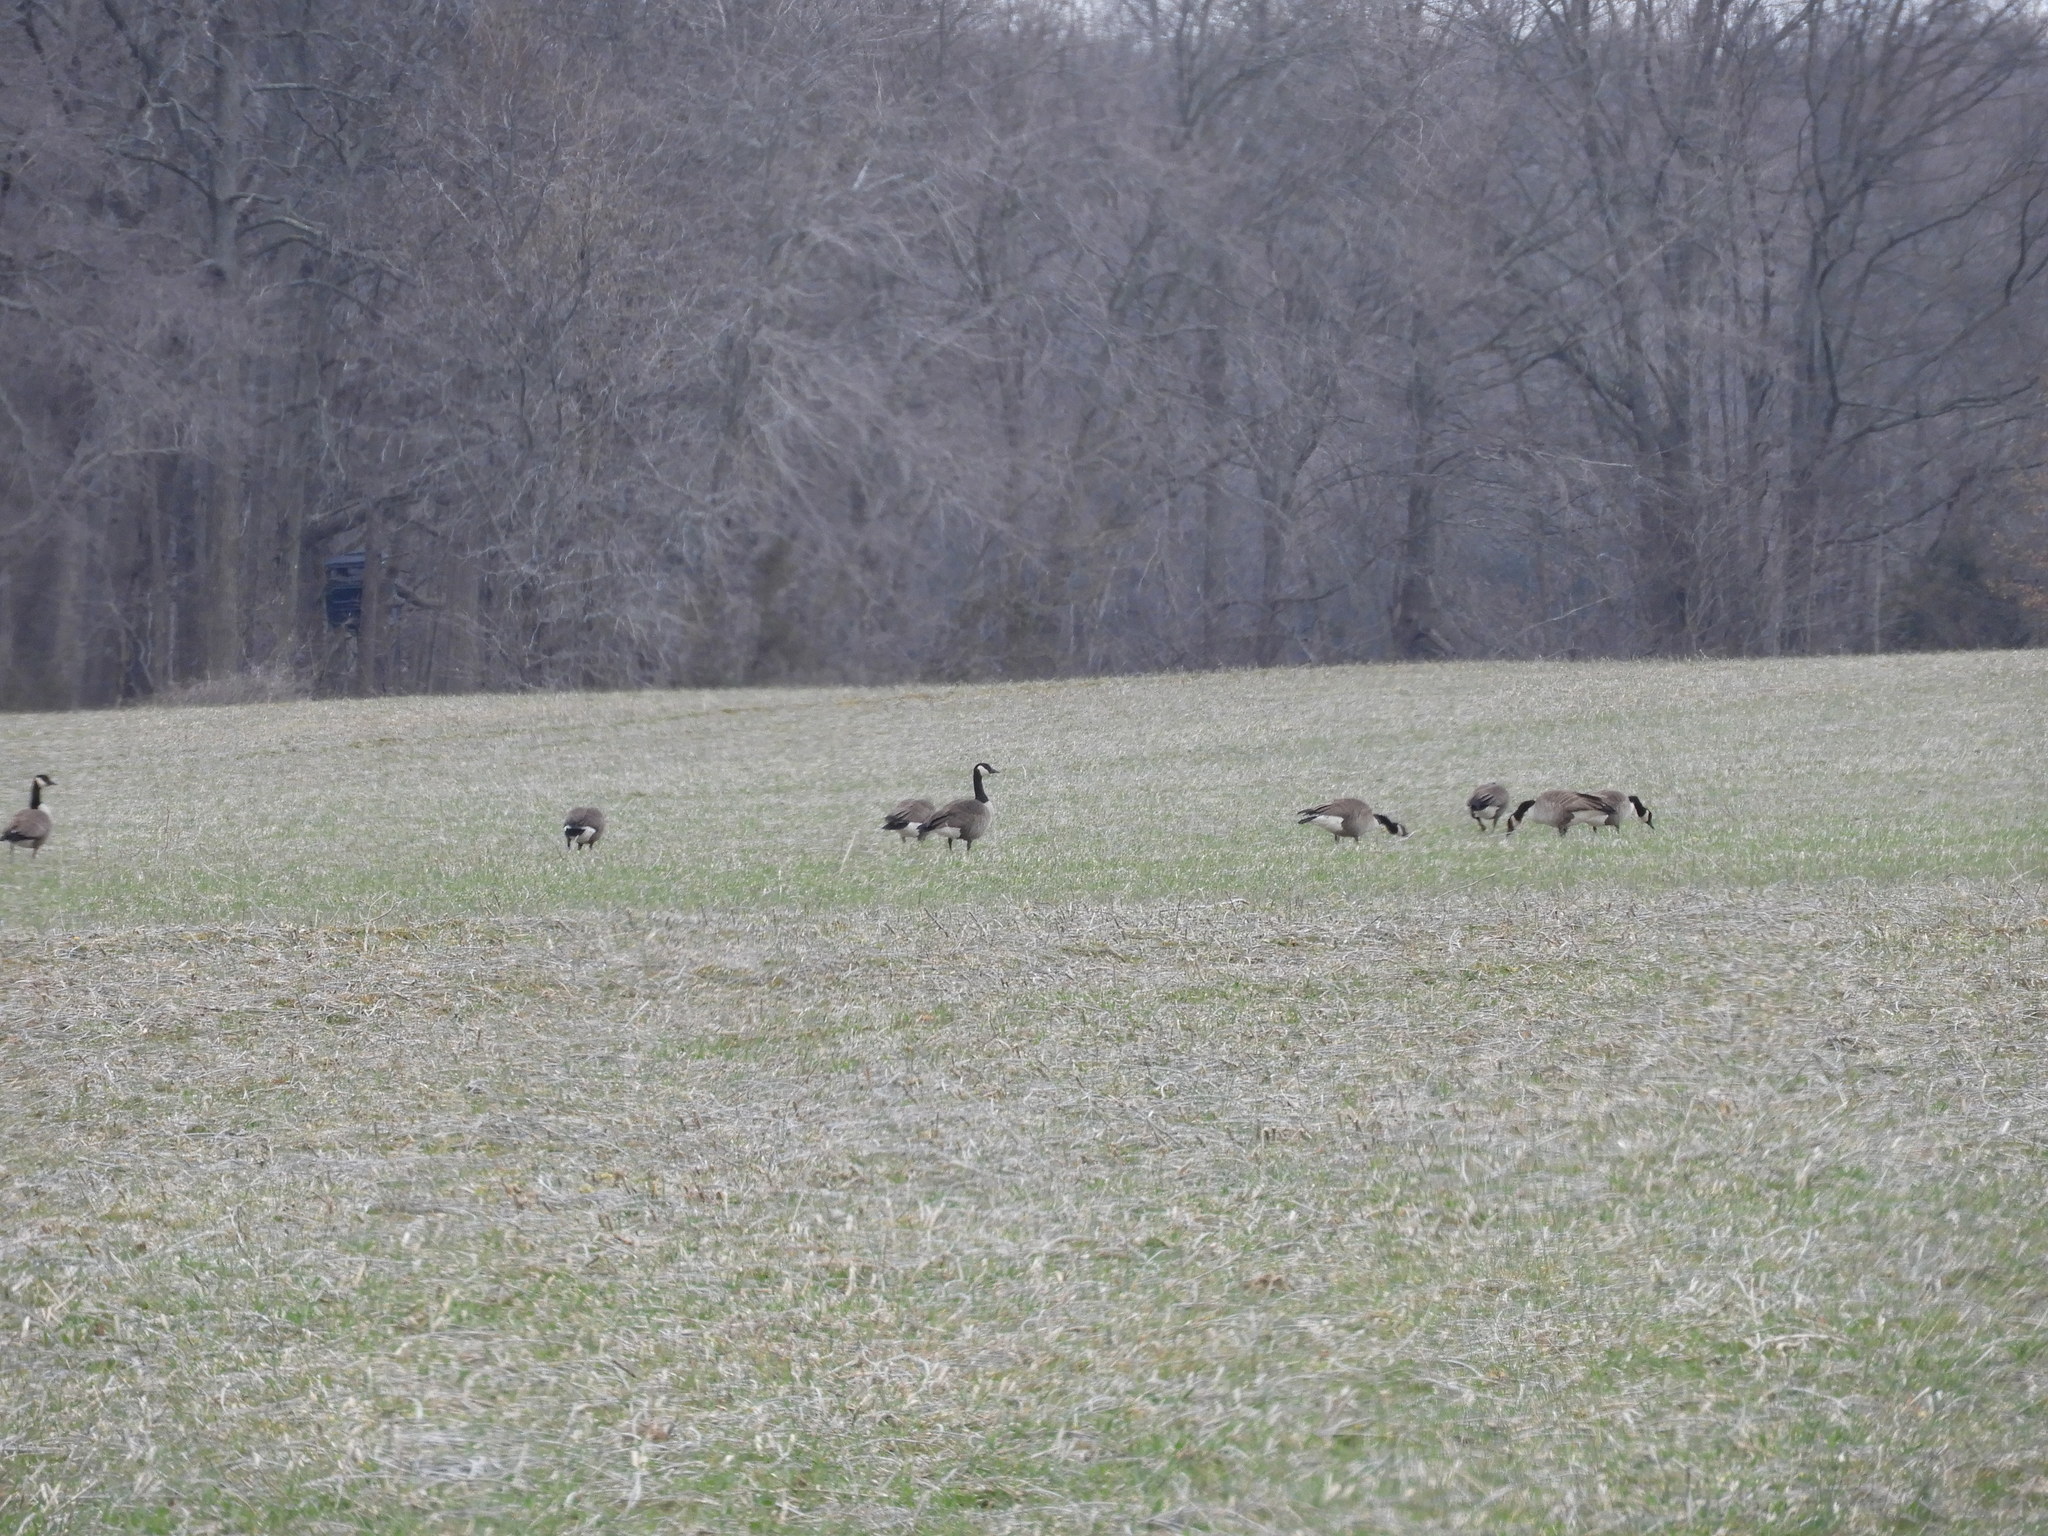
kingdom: Animalia
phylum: Chordata
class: Aves
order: Anseriformes
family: Anatidae
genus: Branta
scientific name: Branta canadensis
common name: Canada goose
